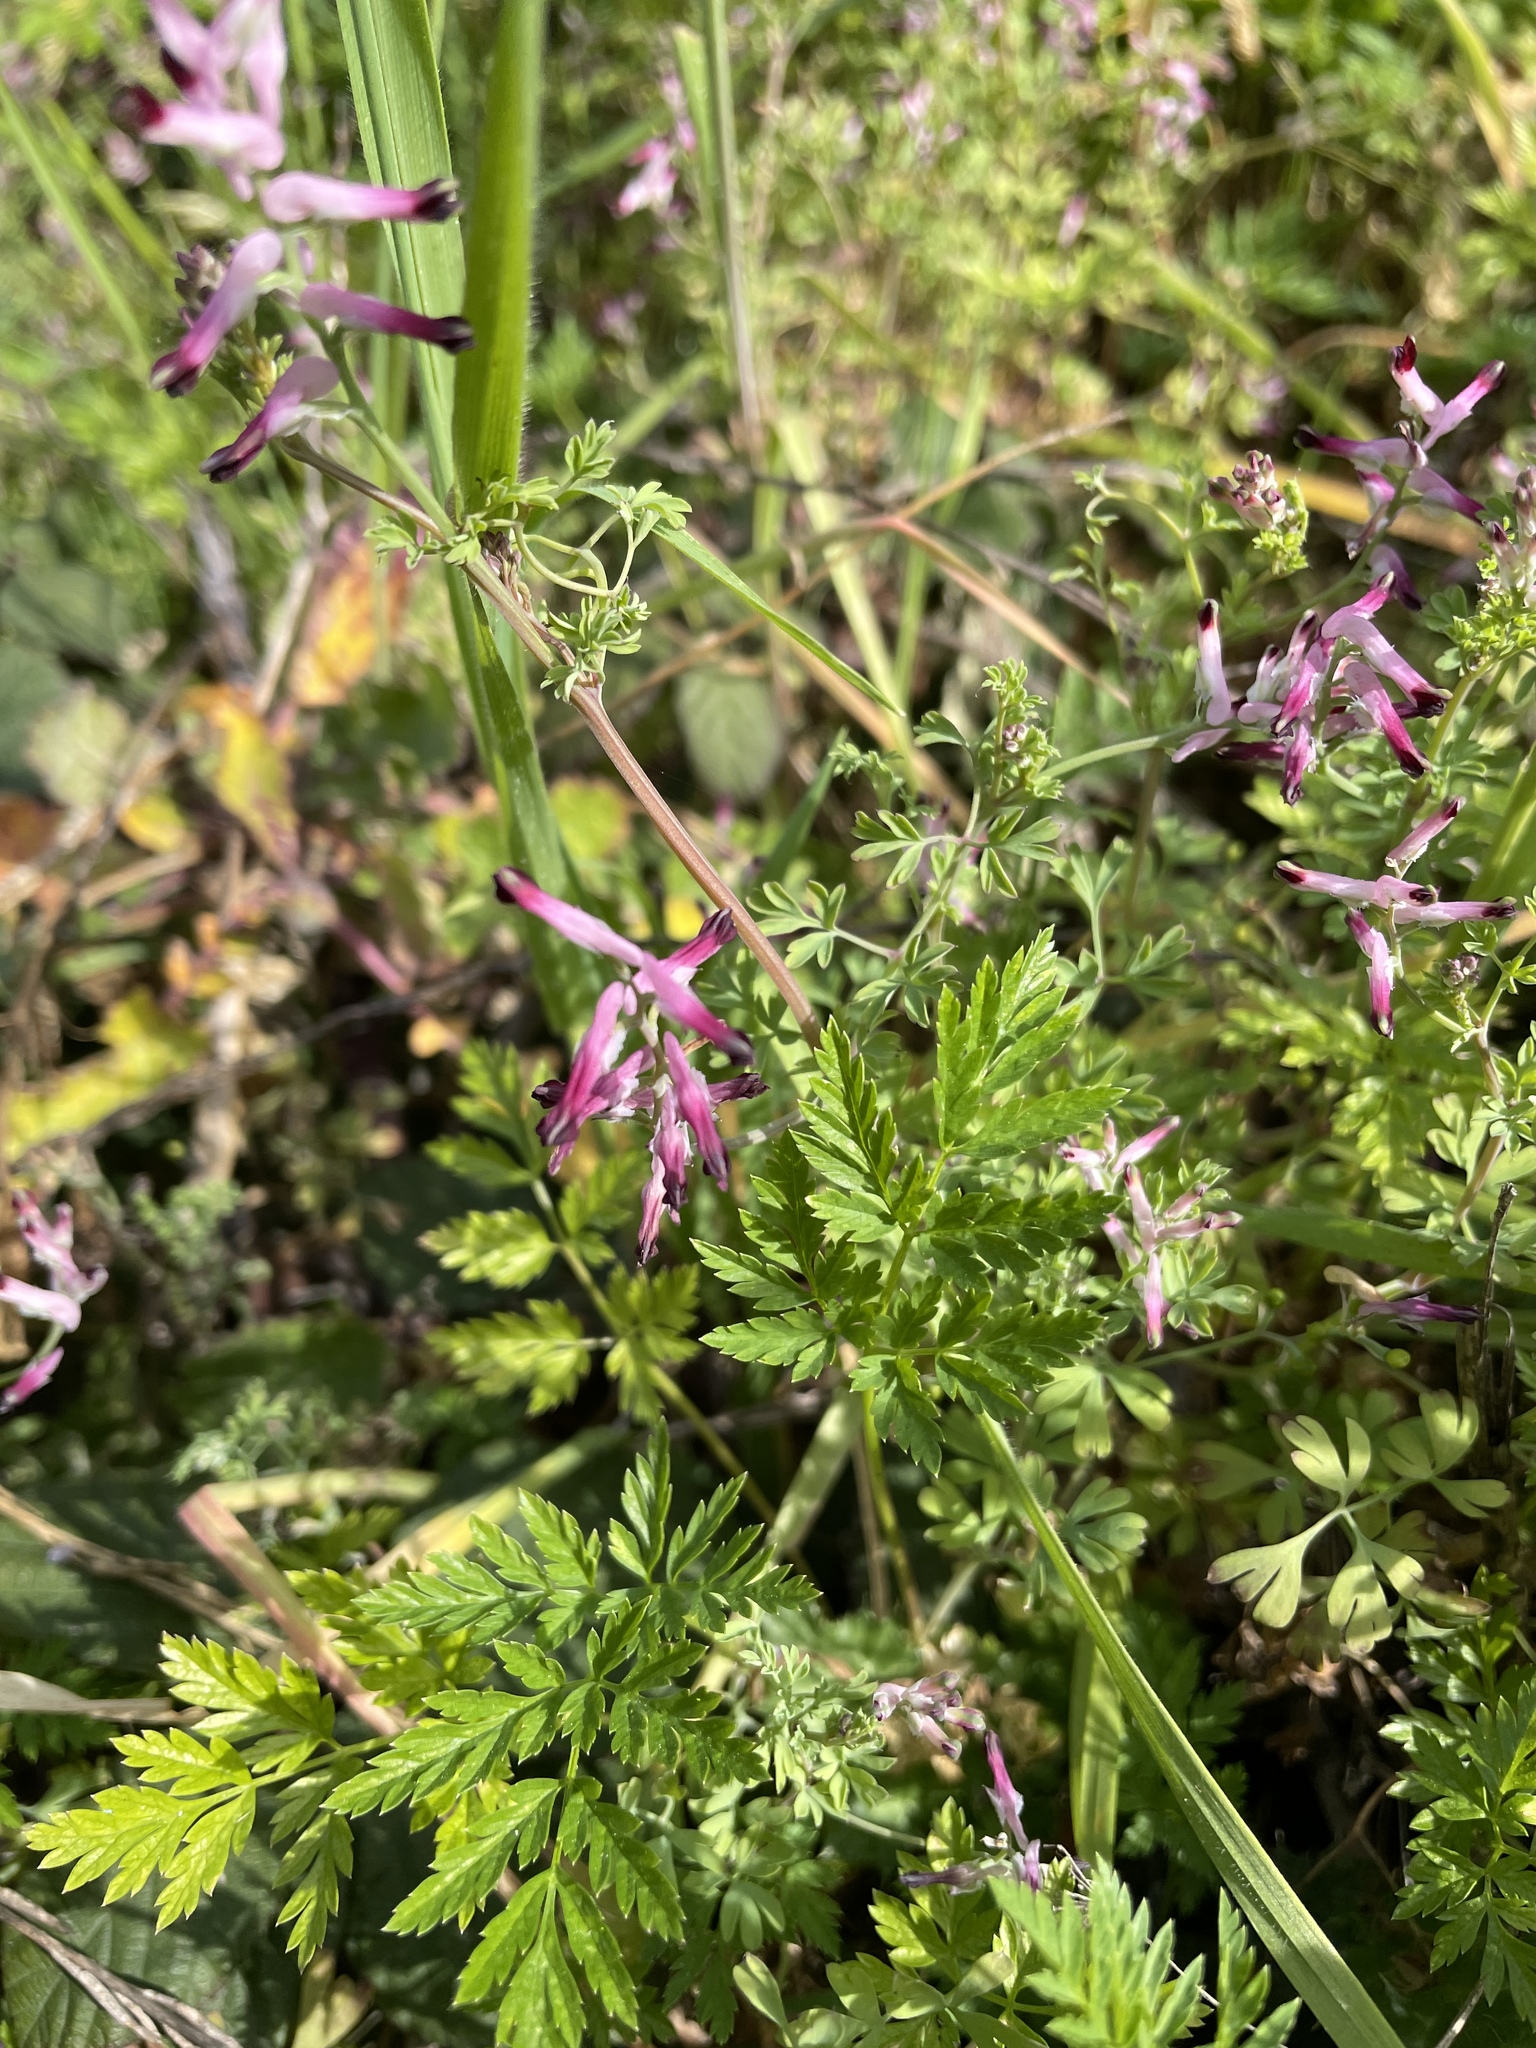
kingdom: Plantae
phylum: Tracheophyta
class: Magnoliopsida
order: Ranunculales
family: Papaveraceae
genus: Fumaria
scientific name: Fumaria muralis
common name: Common ramping-fumitory
